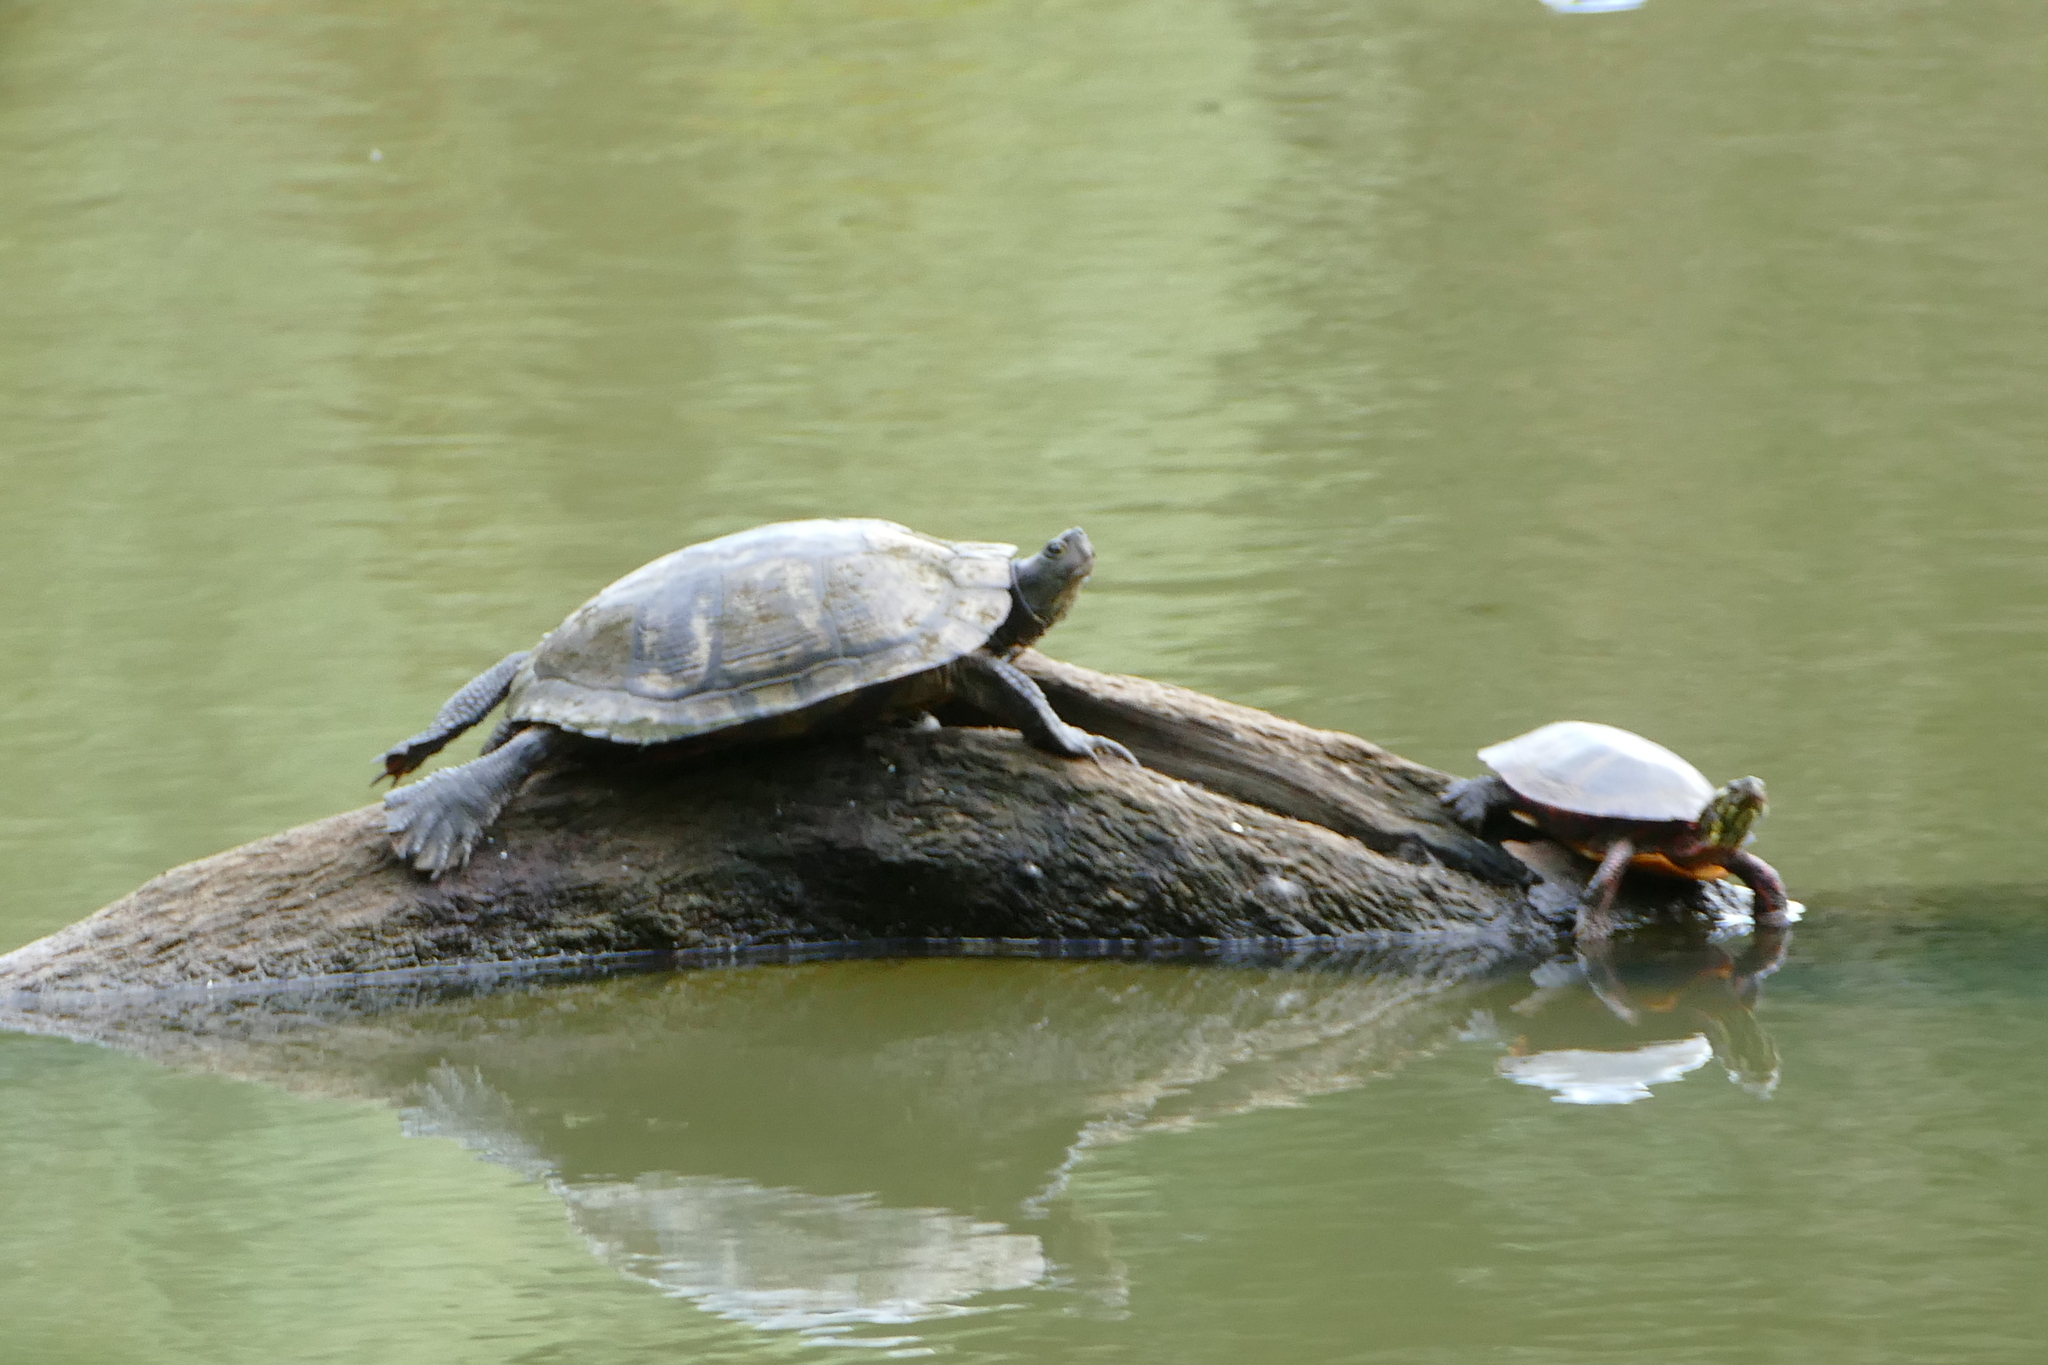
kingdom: Animalia
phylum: Chordata
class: Testudines
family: Emydidae
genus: Trachemys
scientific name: Trachemys scripta
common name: Slider
